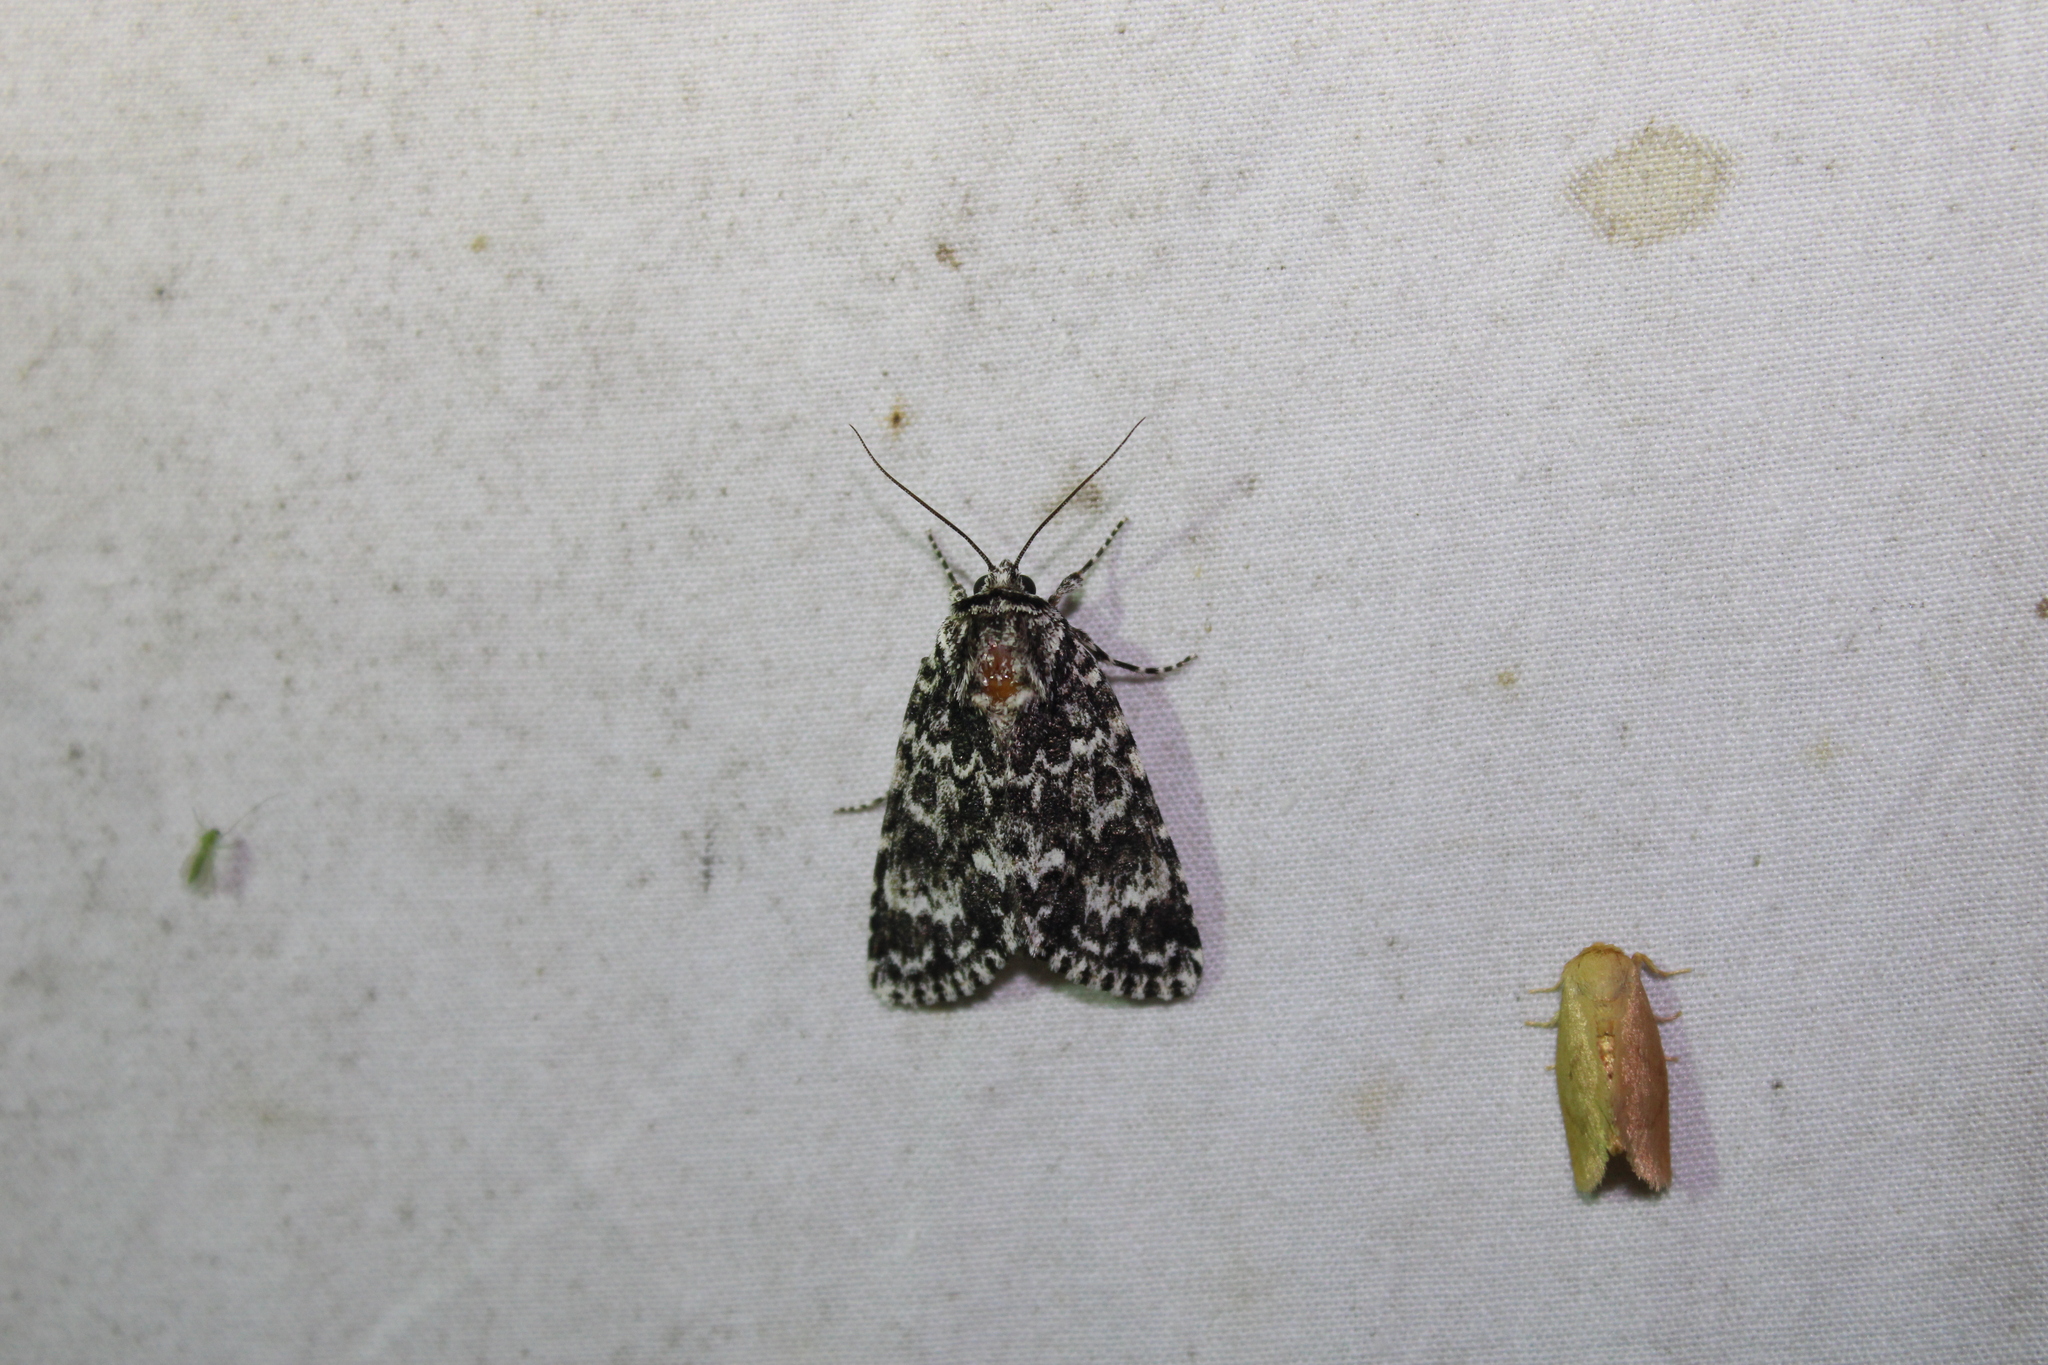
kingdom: Animalia
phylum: Arthropoda
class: Insecta
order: Lepidoptera
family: Noctuidae
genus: Acronicta
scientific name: Acronicta noctivaga
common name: Night-wandering dagger
